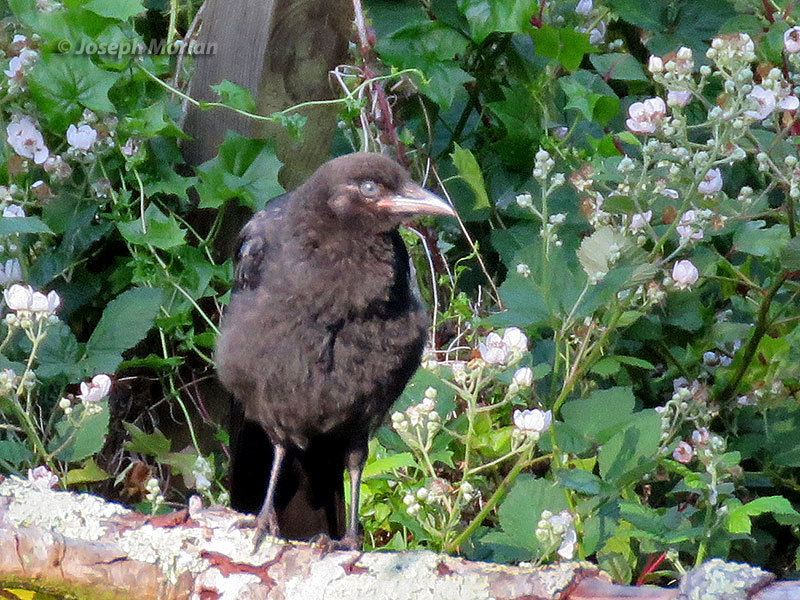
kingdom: Animalia
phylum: Chordata
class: Aves
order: Passeriformes
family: Corvidae
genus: Corvus
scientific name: Corvus brachyrhynchos
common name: American crow
